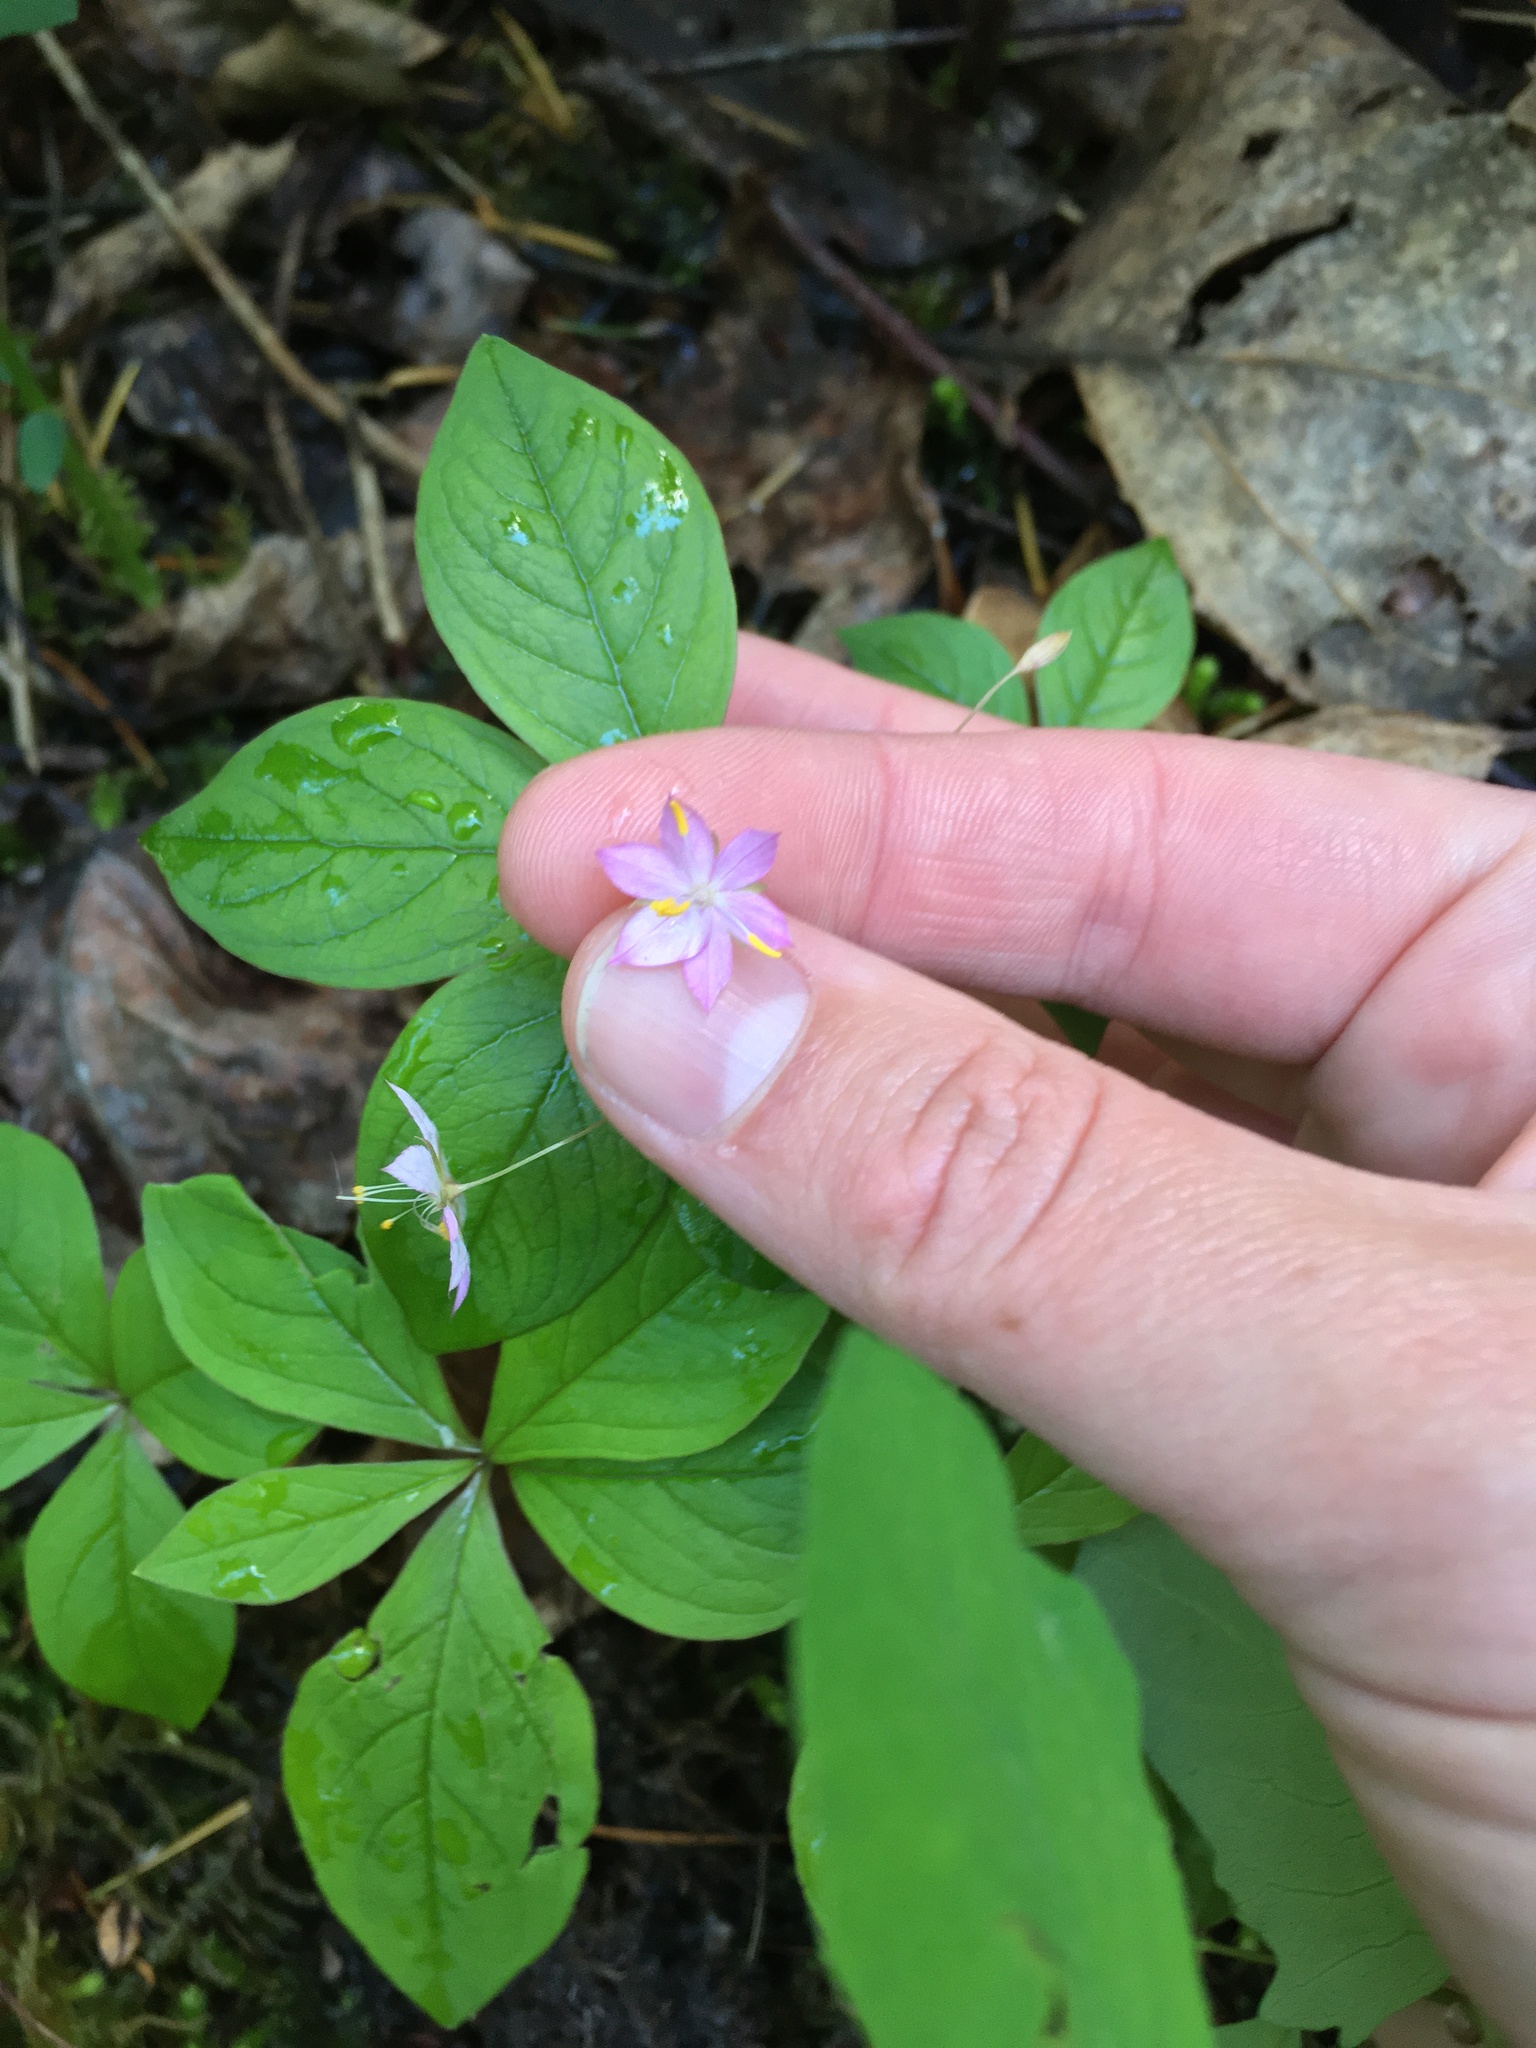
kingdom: Plantae
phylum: Tracheophyta
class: Magnoliopsida
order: Ericales
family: Primulaceae
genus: Lysimachia
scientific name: Lysimachia latifolia
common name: Pacific starflower
